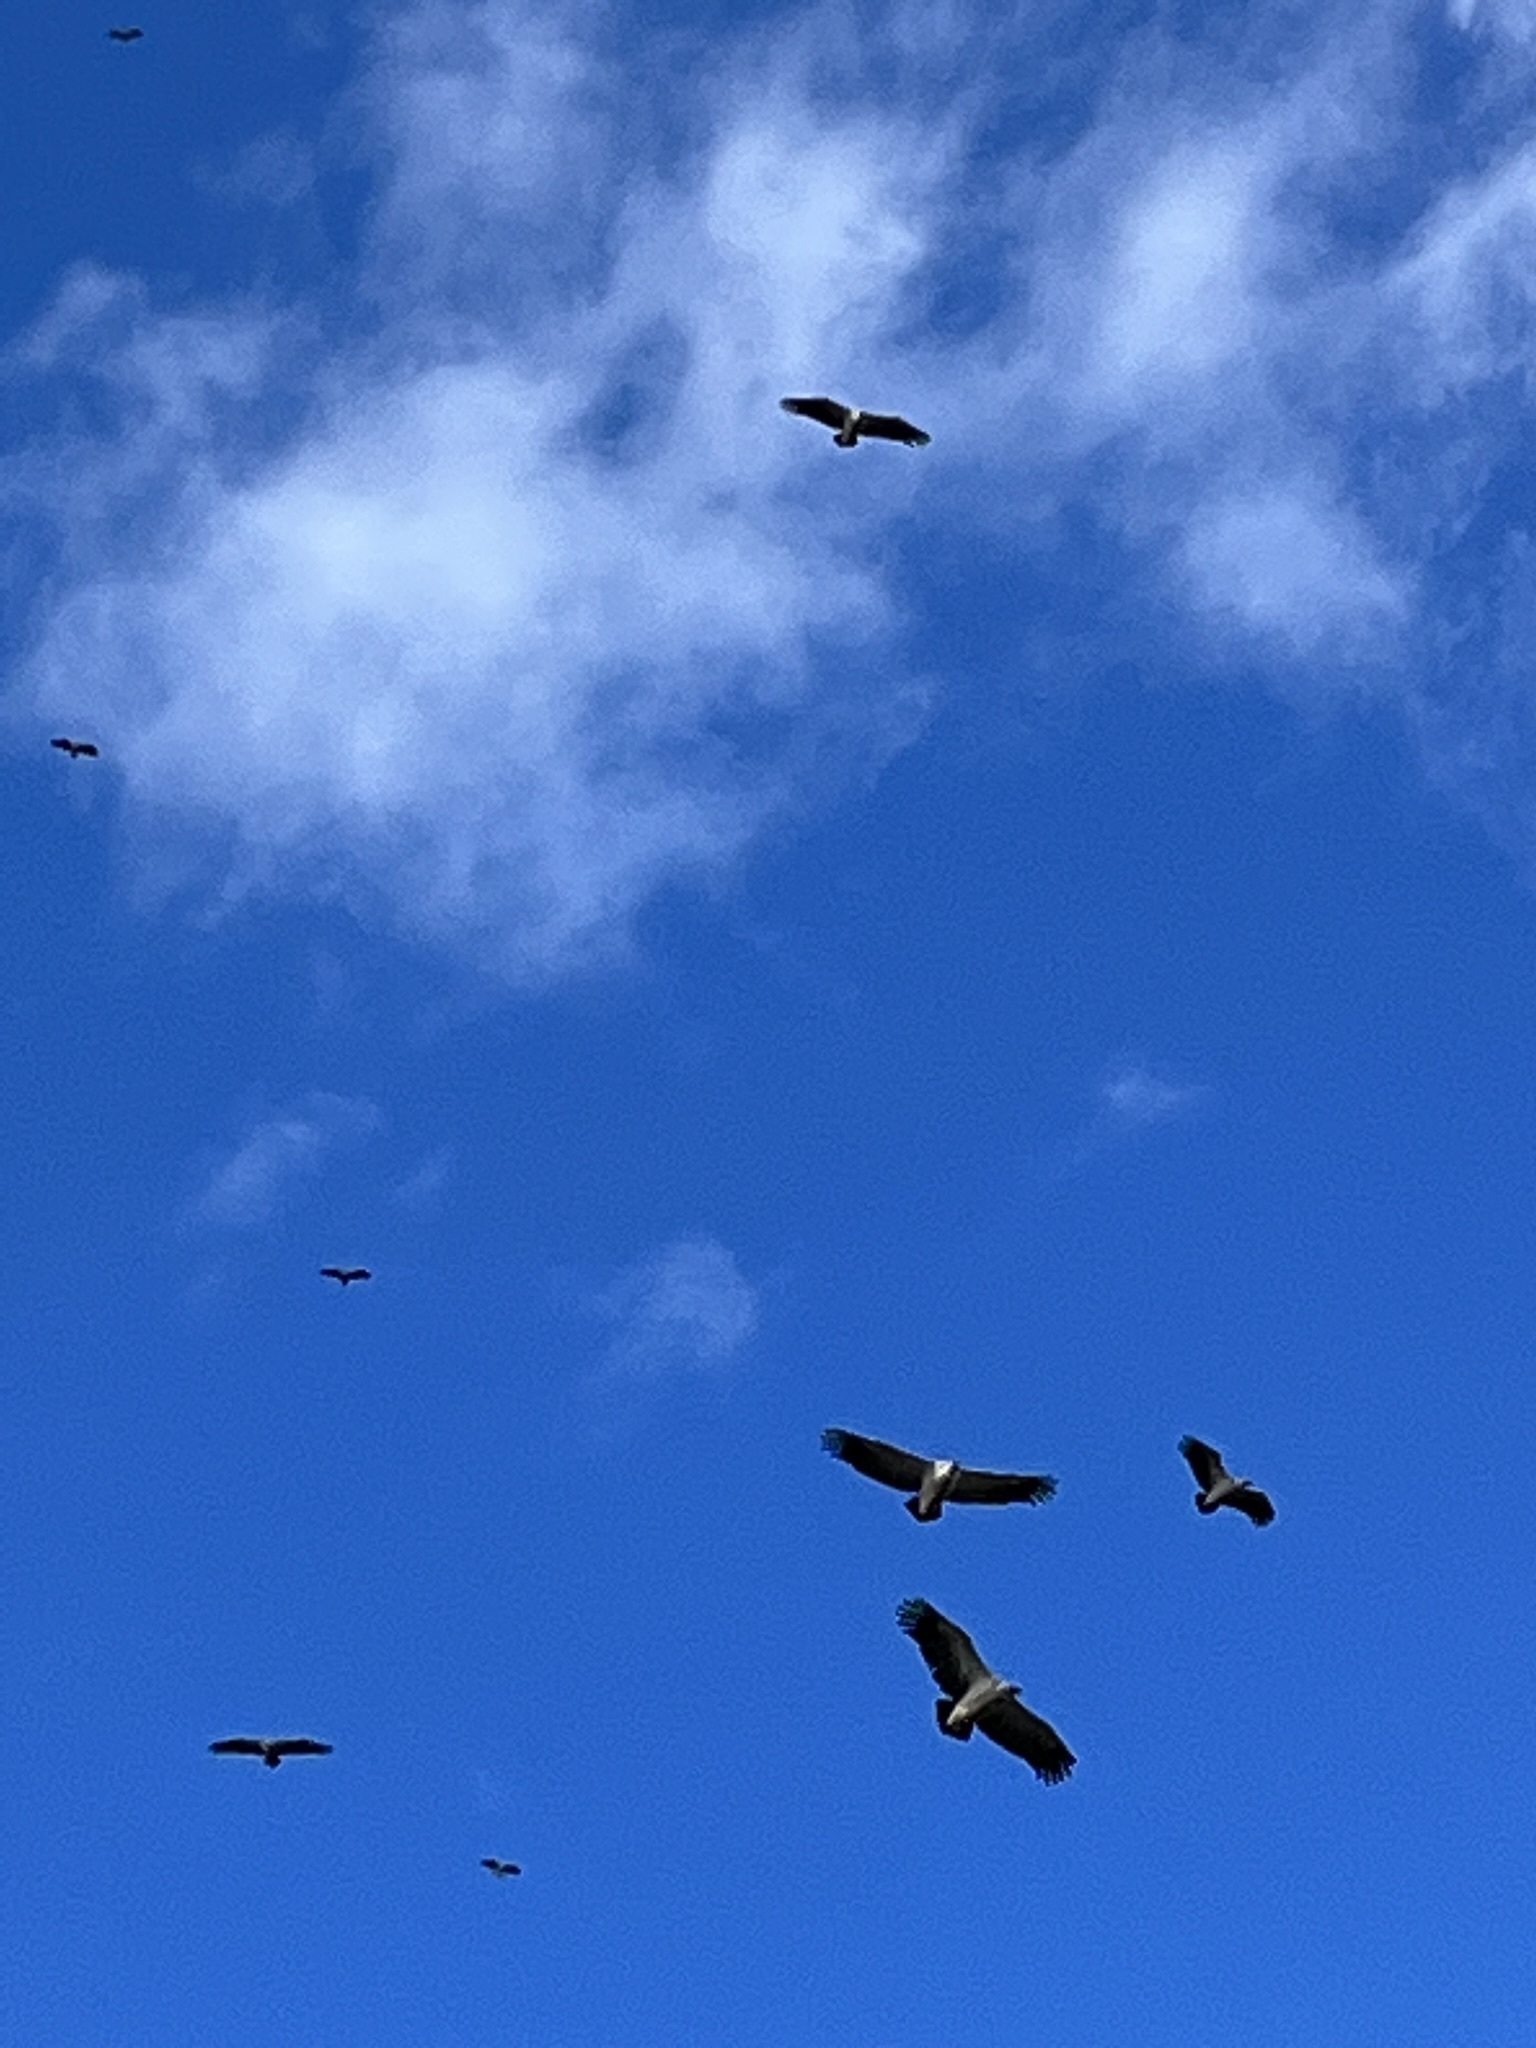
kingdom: Animalia
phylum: Chordata
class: Aves
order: Accipitriformes
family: Accipitridae
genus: Gyps
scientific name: Gyps coprotheres
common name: Cape vulture
